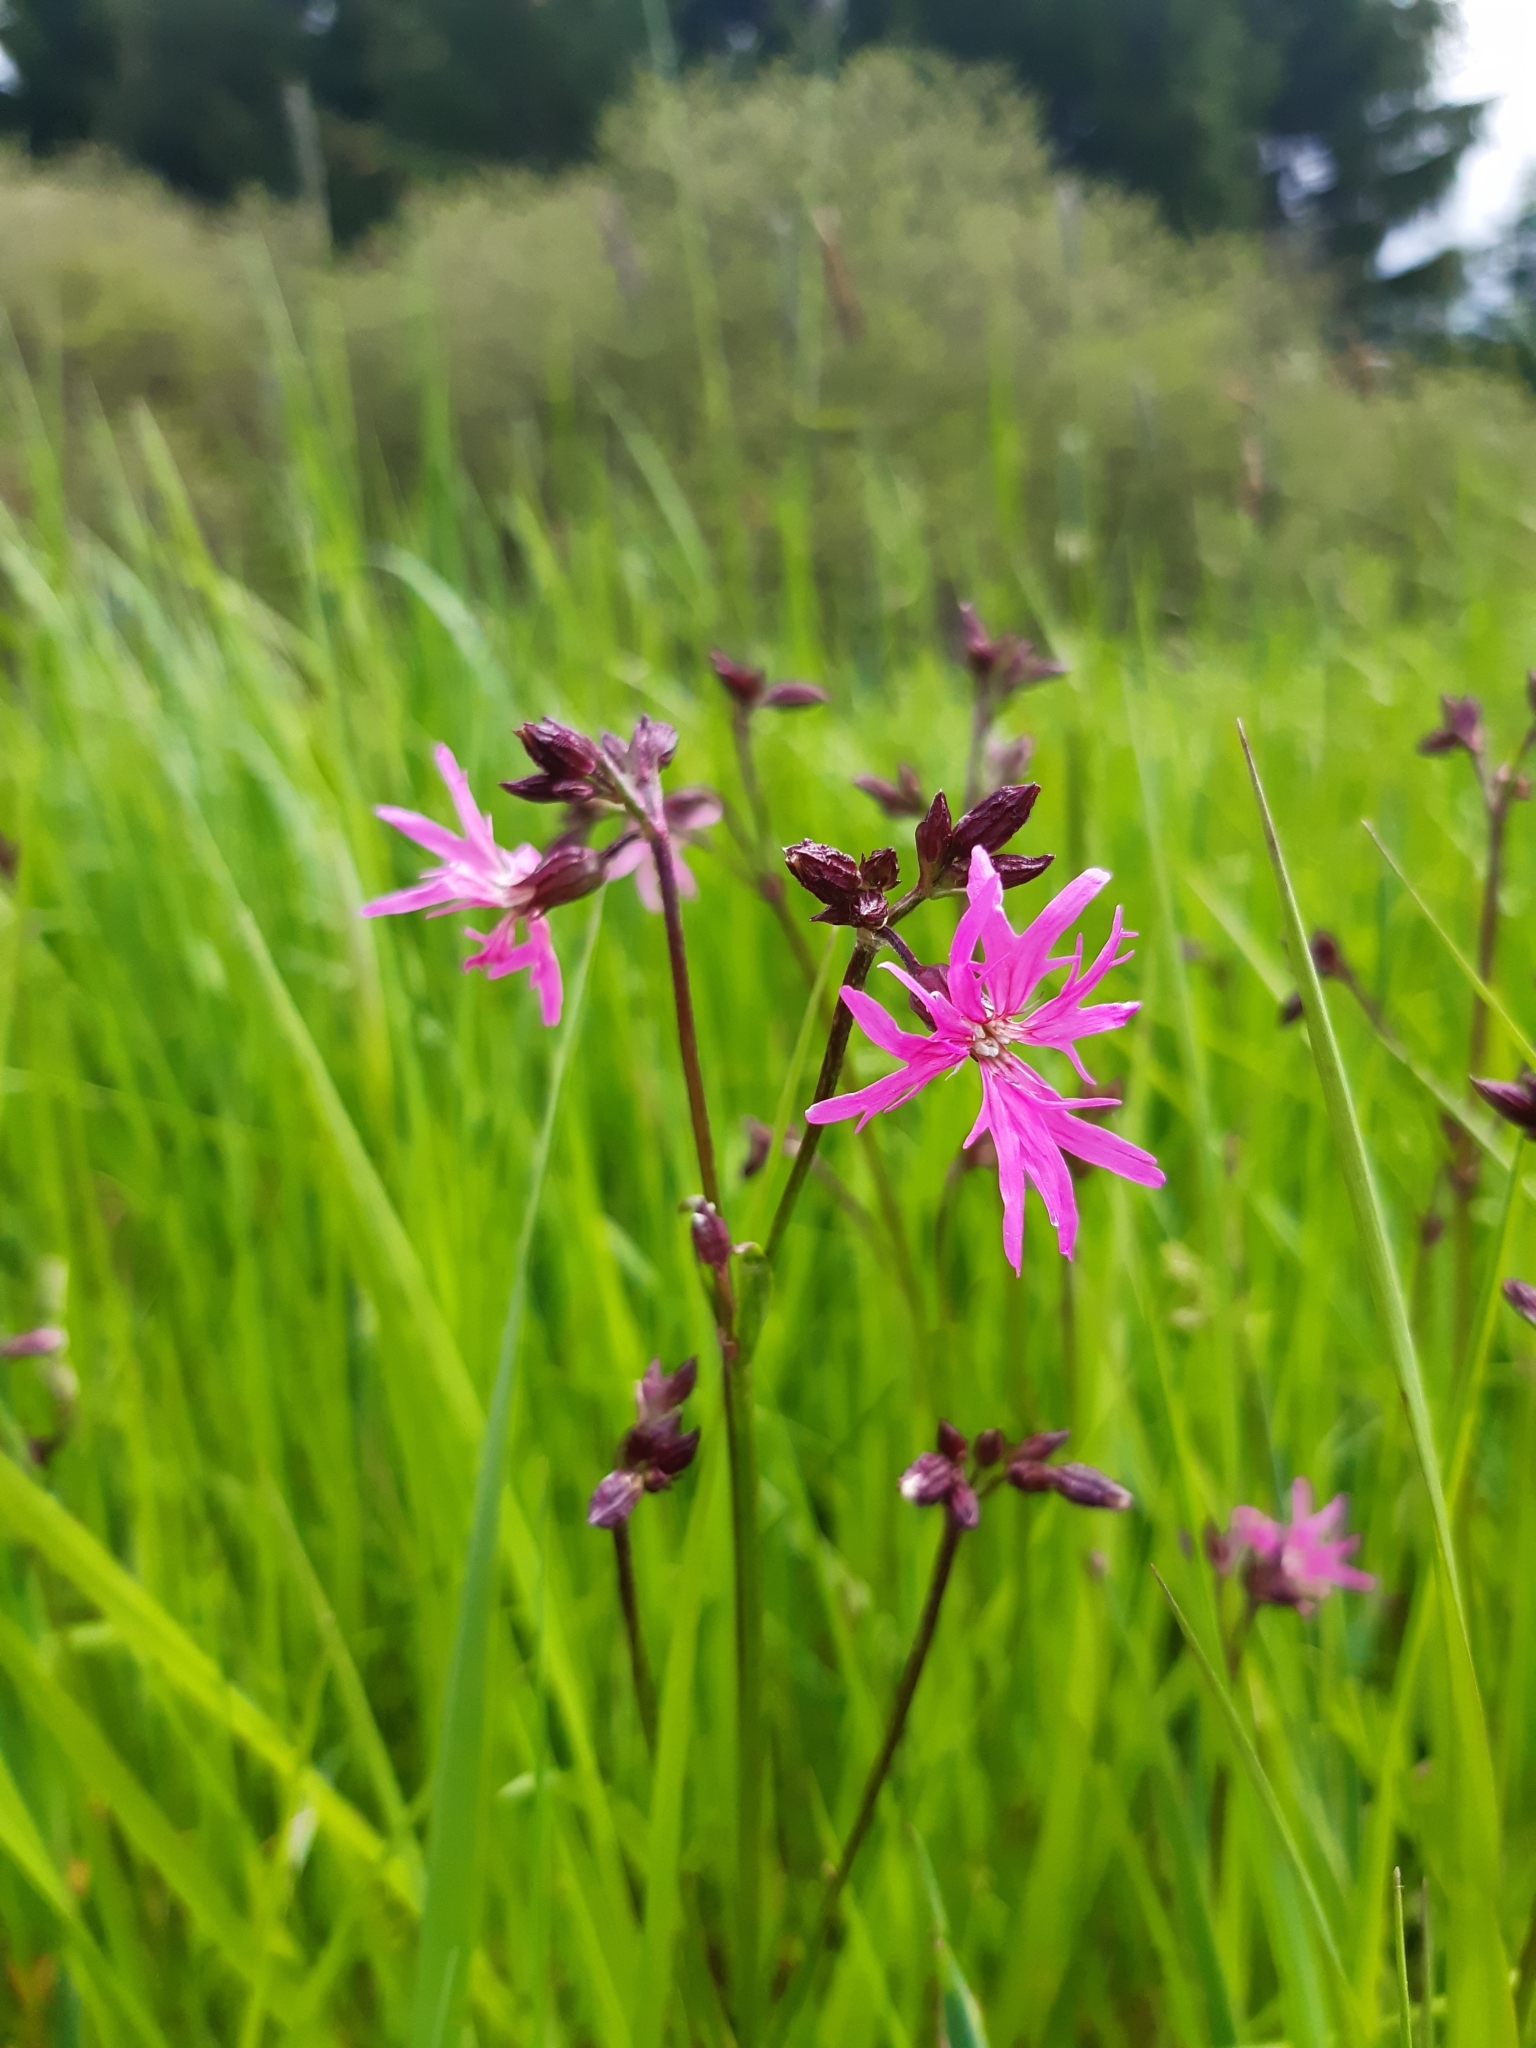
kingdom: Plantae
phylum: Tracheophyta
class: Magnoliopsida
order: Caryophyllales
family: Caryophyllaceae
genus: Silene
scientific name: Silene flos-cuculi
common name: Ragged-robin
